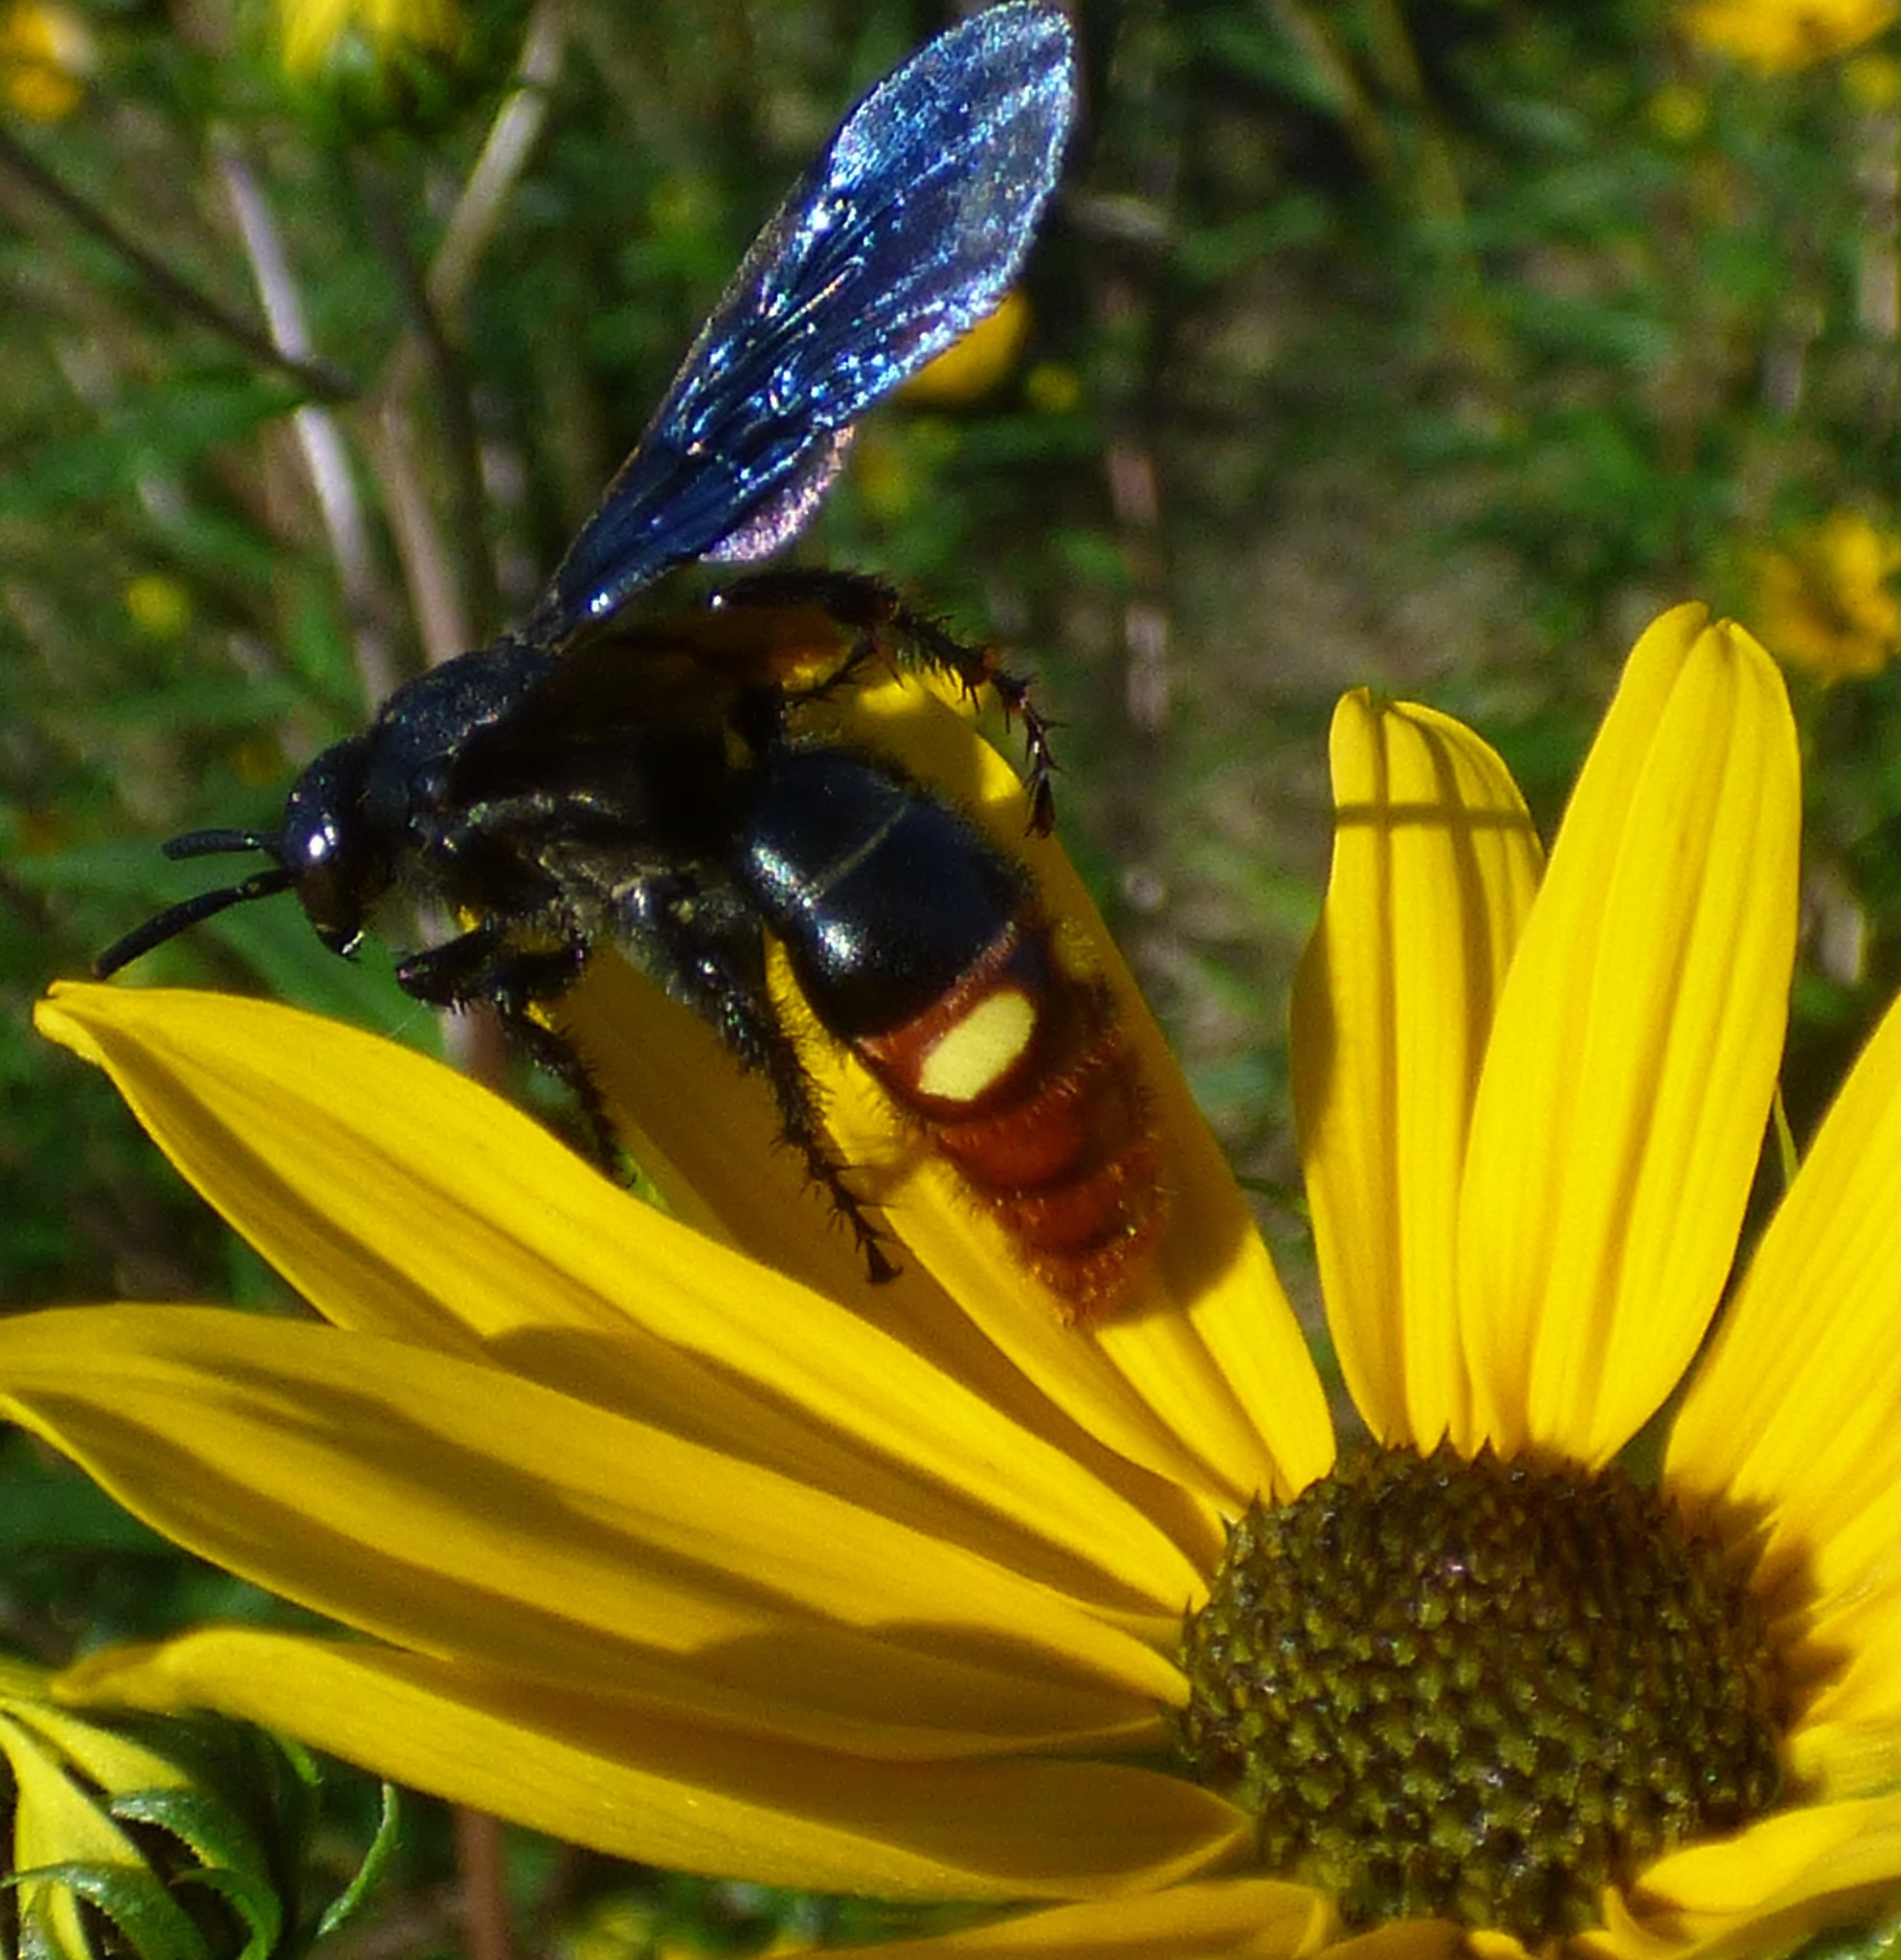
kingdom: Animalia
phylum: Arthropoda
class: Insecta
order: Hymenoptera
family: Scoliidae
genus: Scolia
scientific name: Scolia dubia
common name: Blue-winged scoliid wasp
